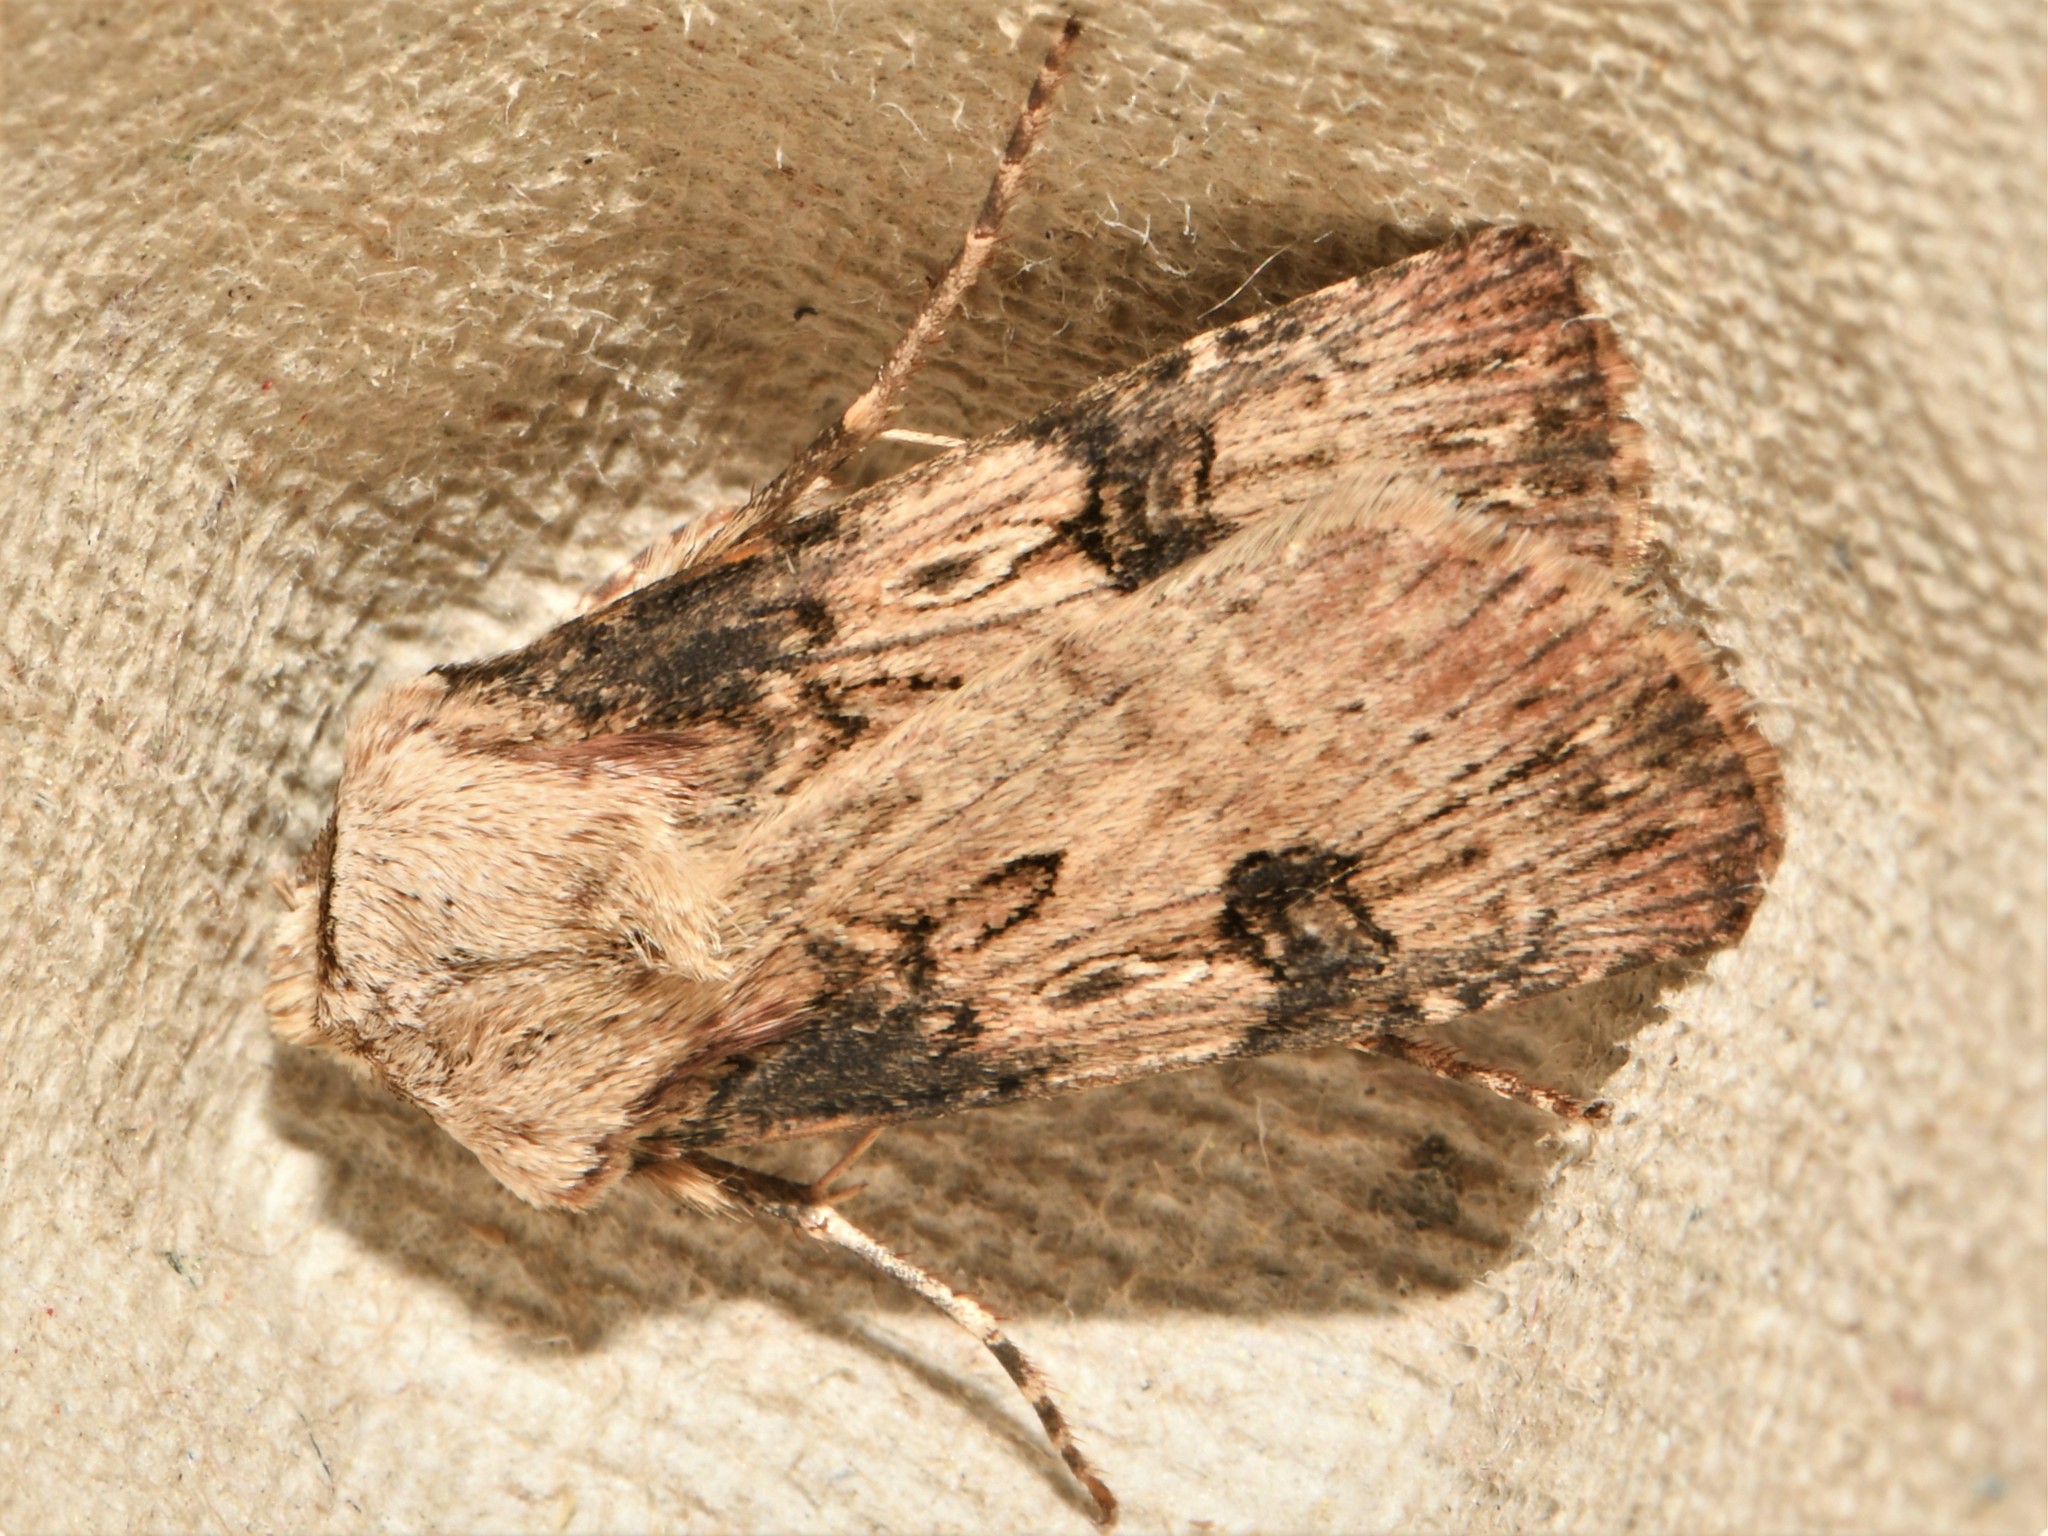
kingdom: Animalia
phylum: Arthropoda
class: Insecta
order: Lepidoptera
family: Noctuidae
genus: Agrotis
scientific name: Agrotis puta
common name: Shuttle-shaped dart
